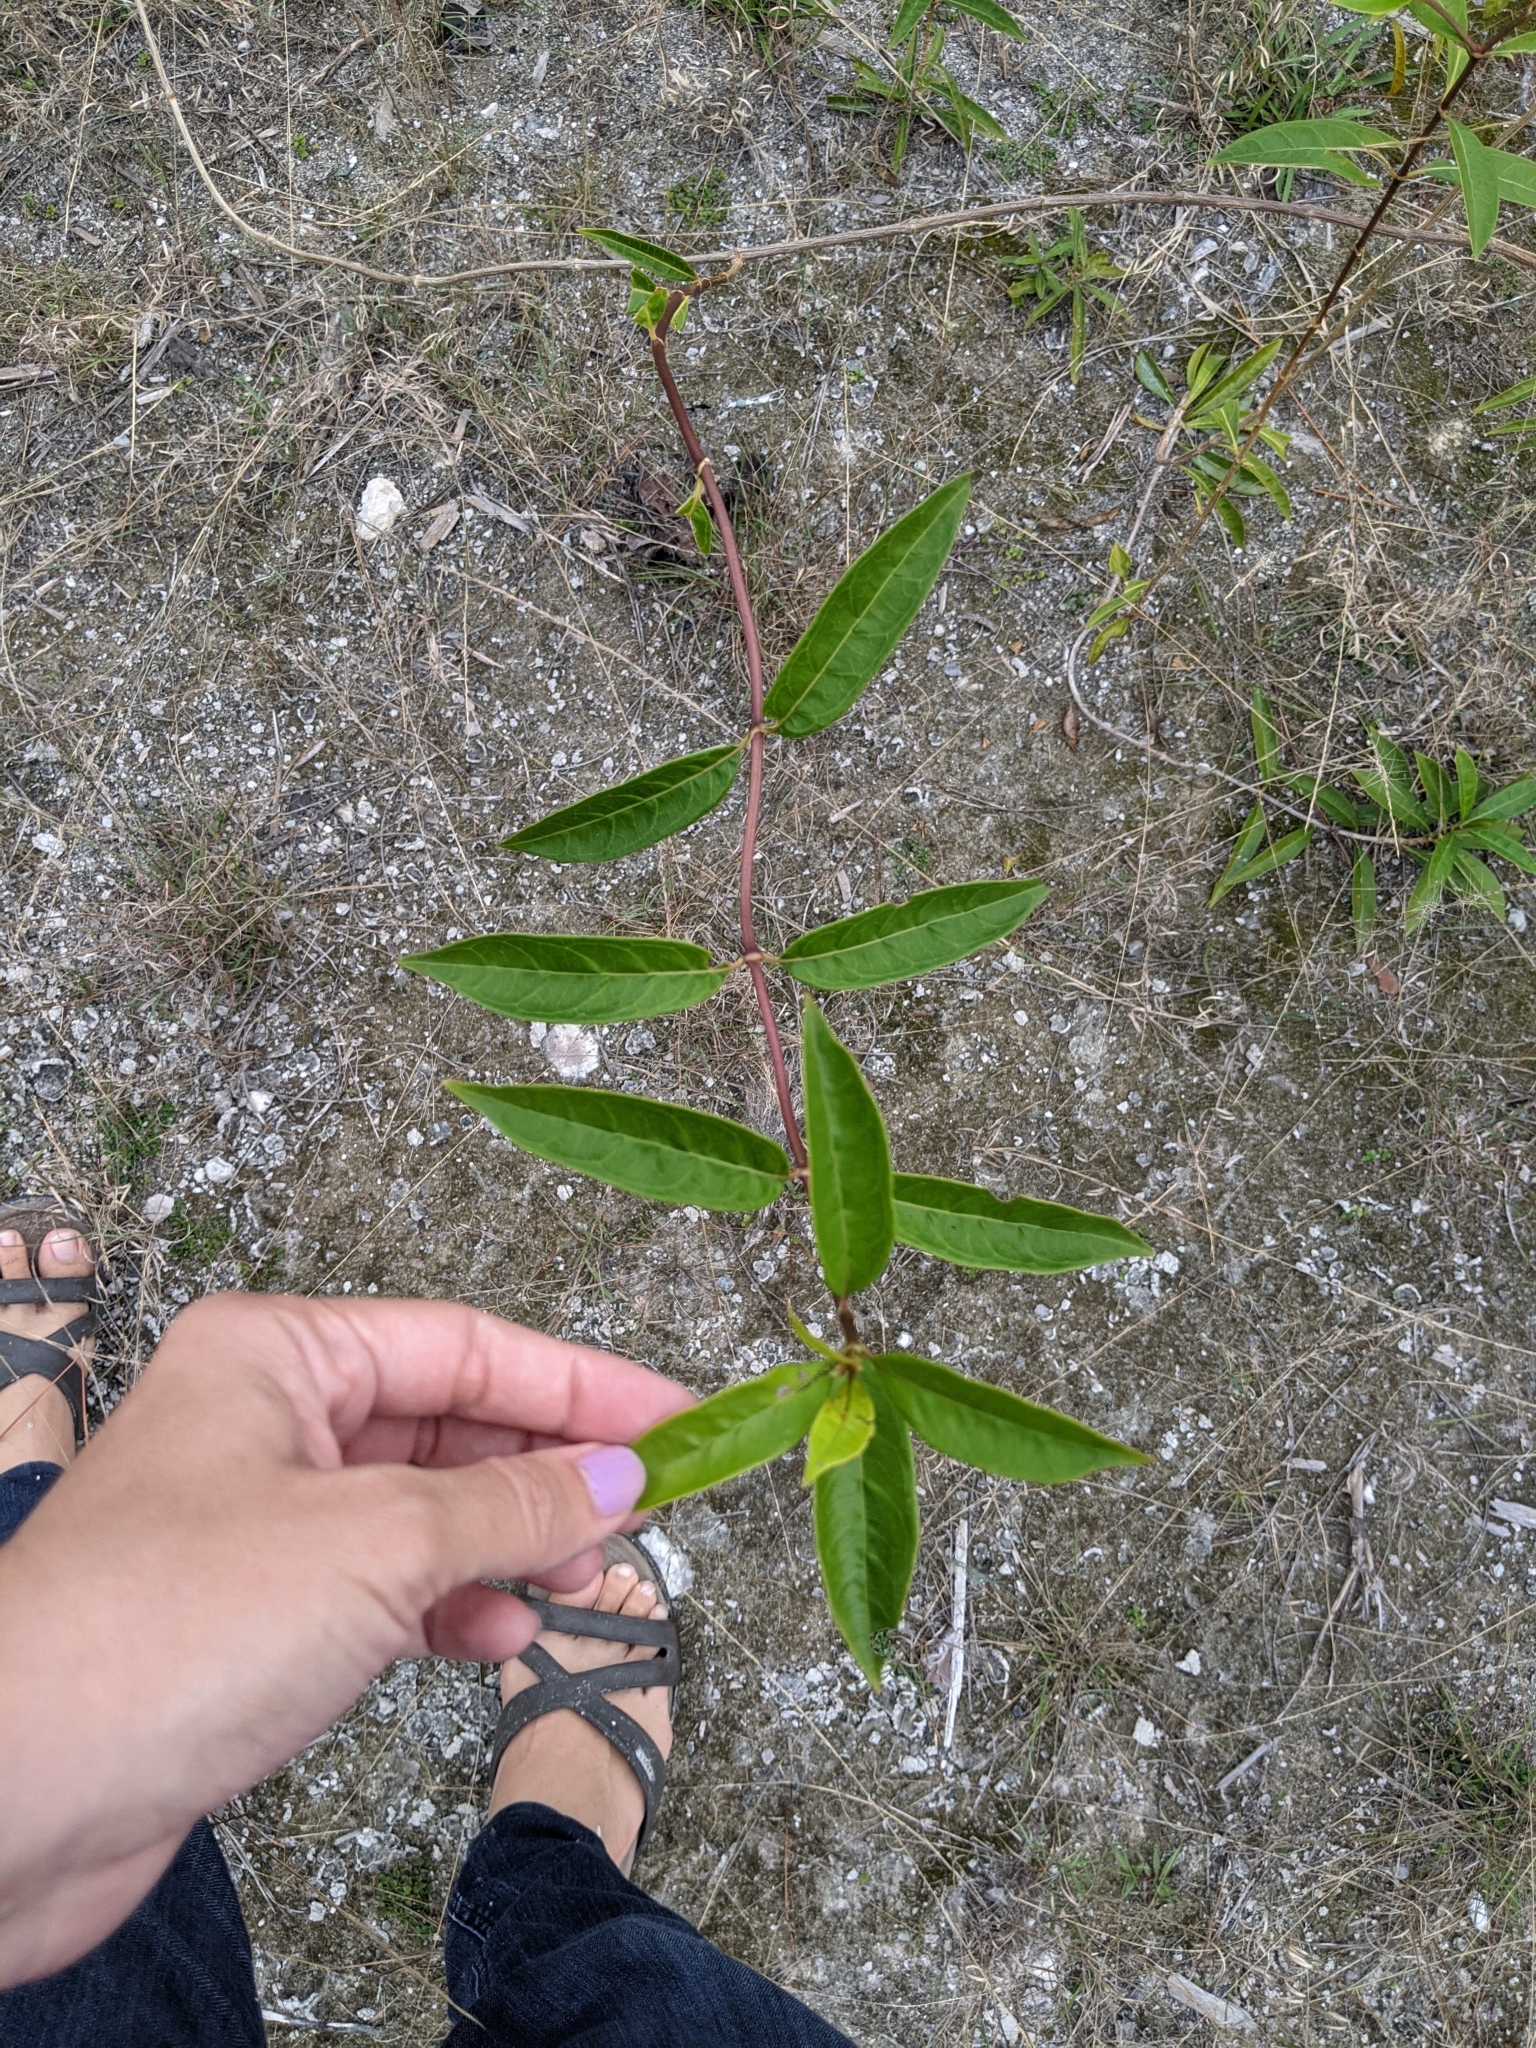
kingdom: Plantae
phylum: Tracheophyta
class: Magnoliopsida
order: Gentianales
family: Rubiaceae
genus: Morinda
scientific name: Morinda royoc
